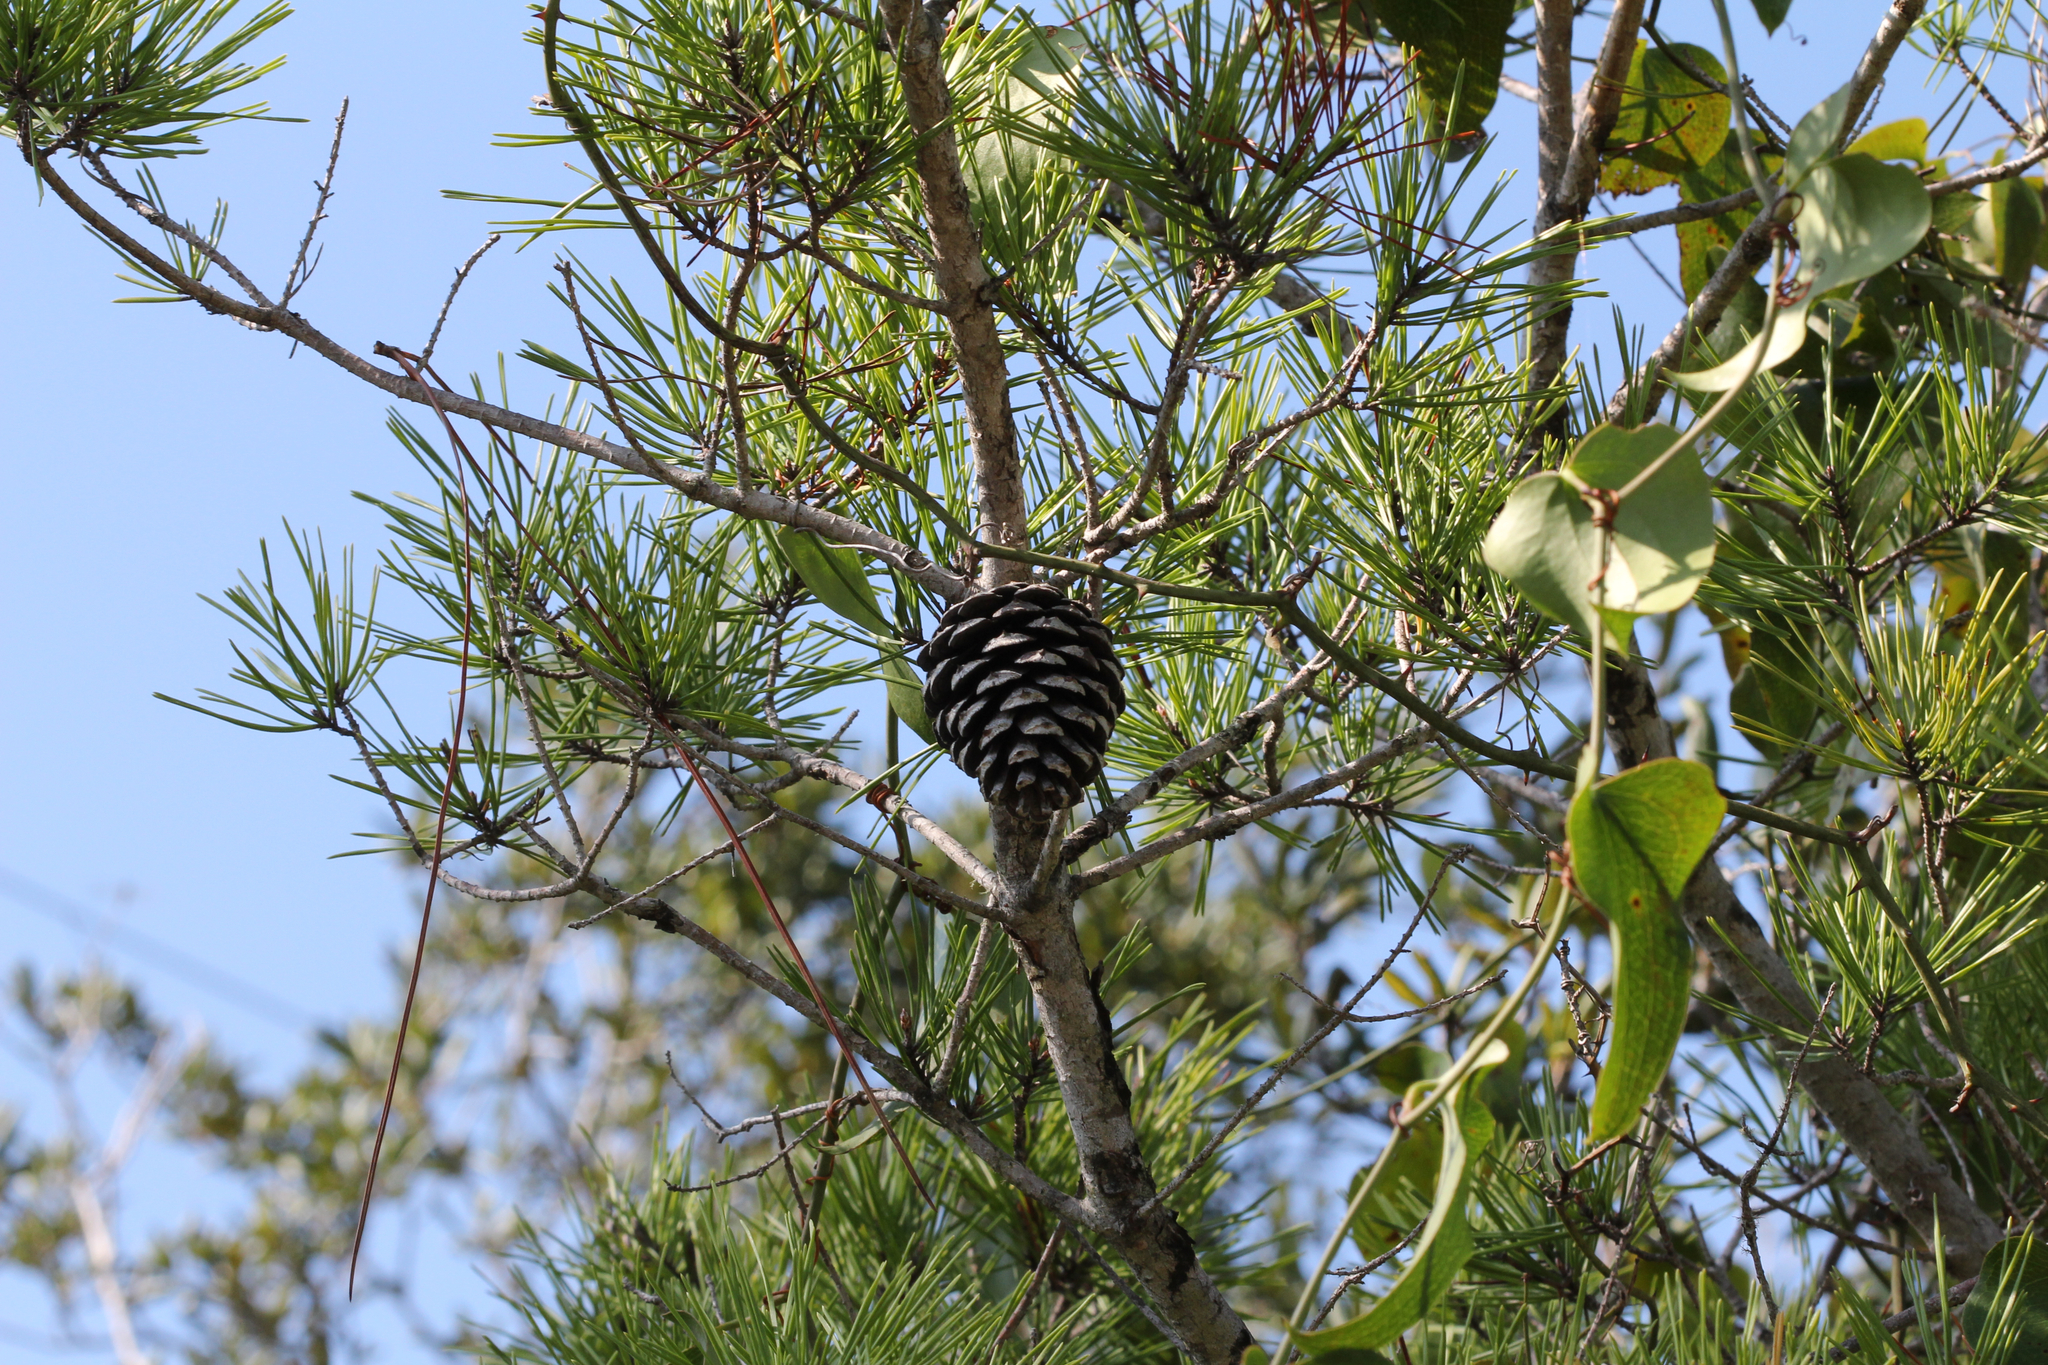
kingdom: Plantae
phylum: Tracheophyta
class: Pinopsida
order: Pinales
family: Pinaceae
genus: Pinus
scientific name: Pinus clausa
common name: Sand pine
